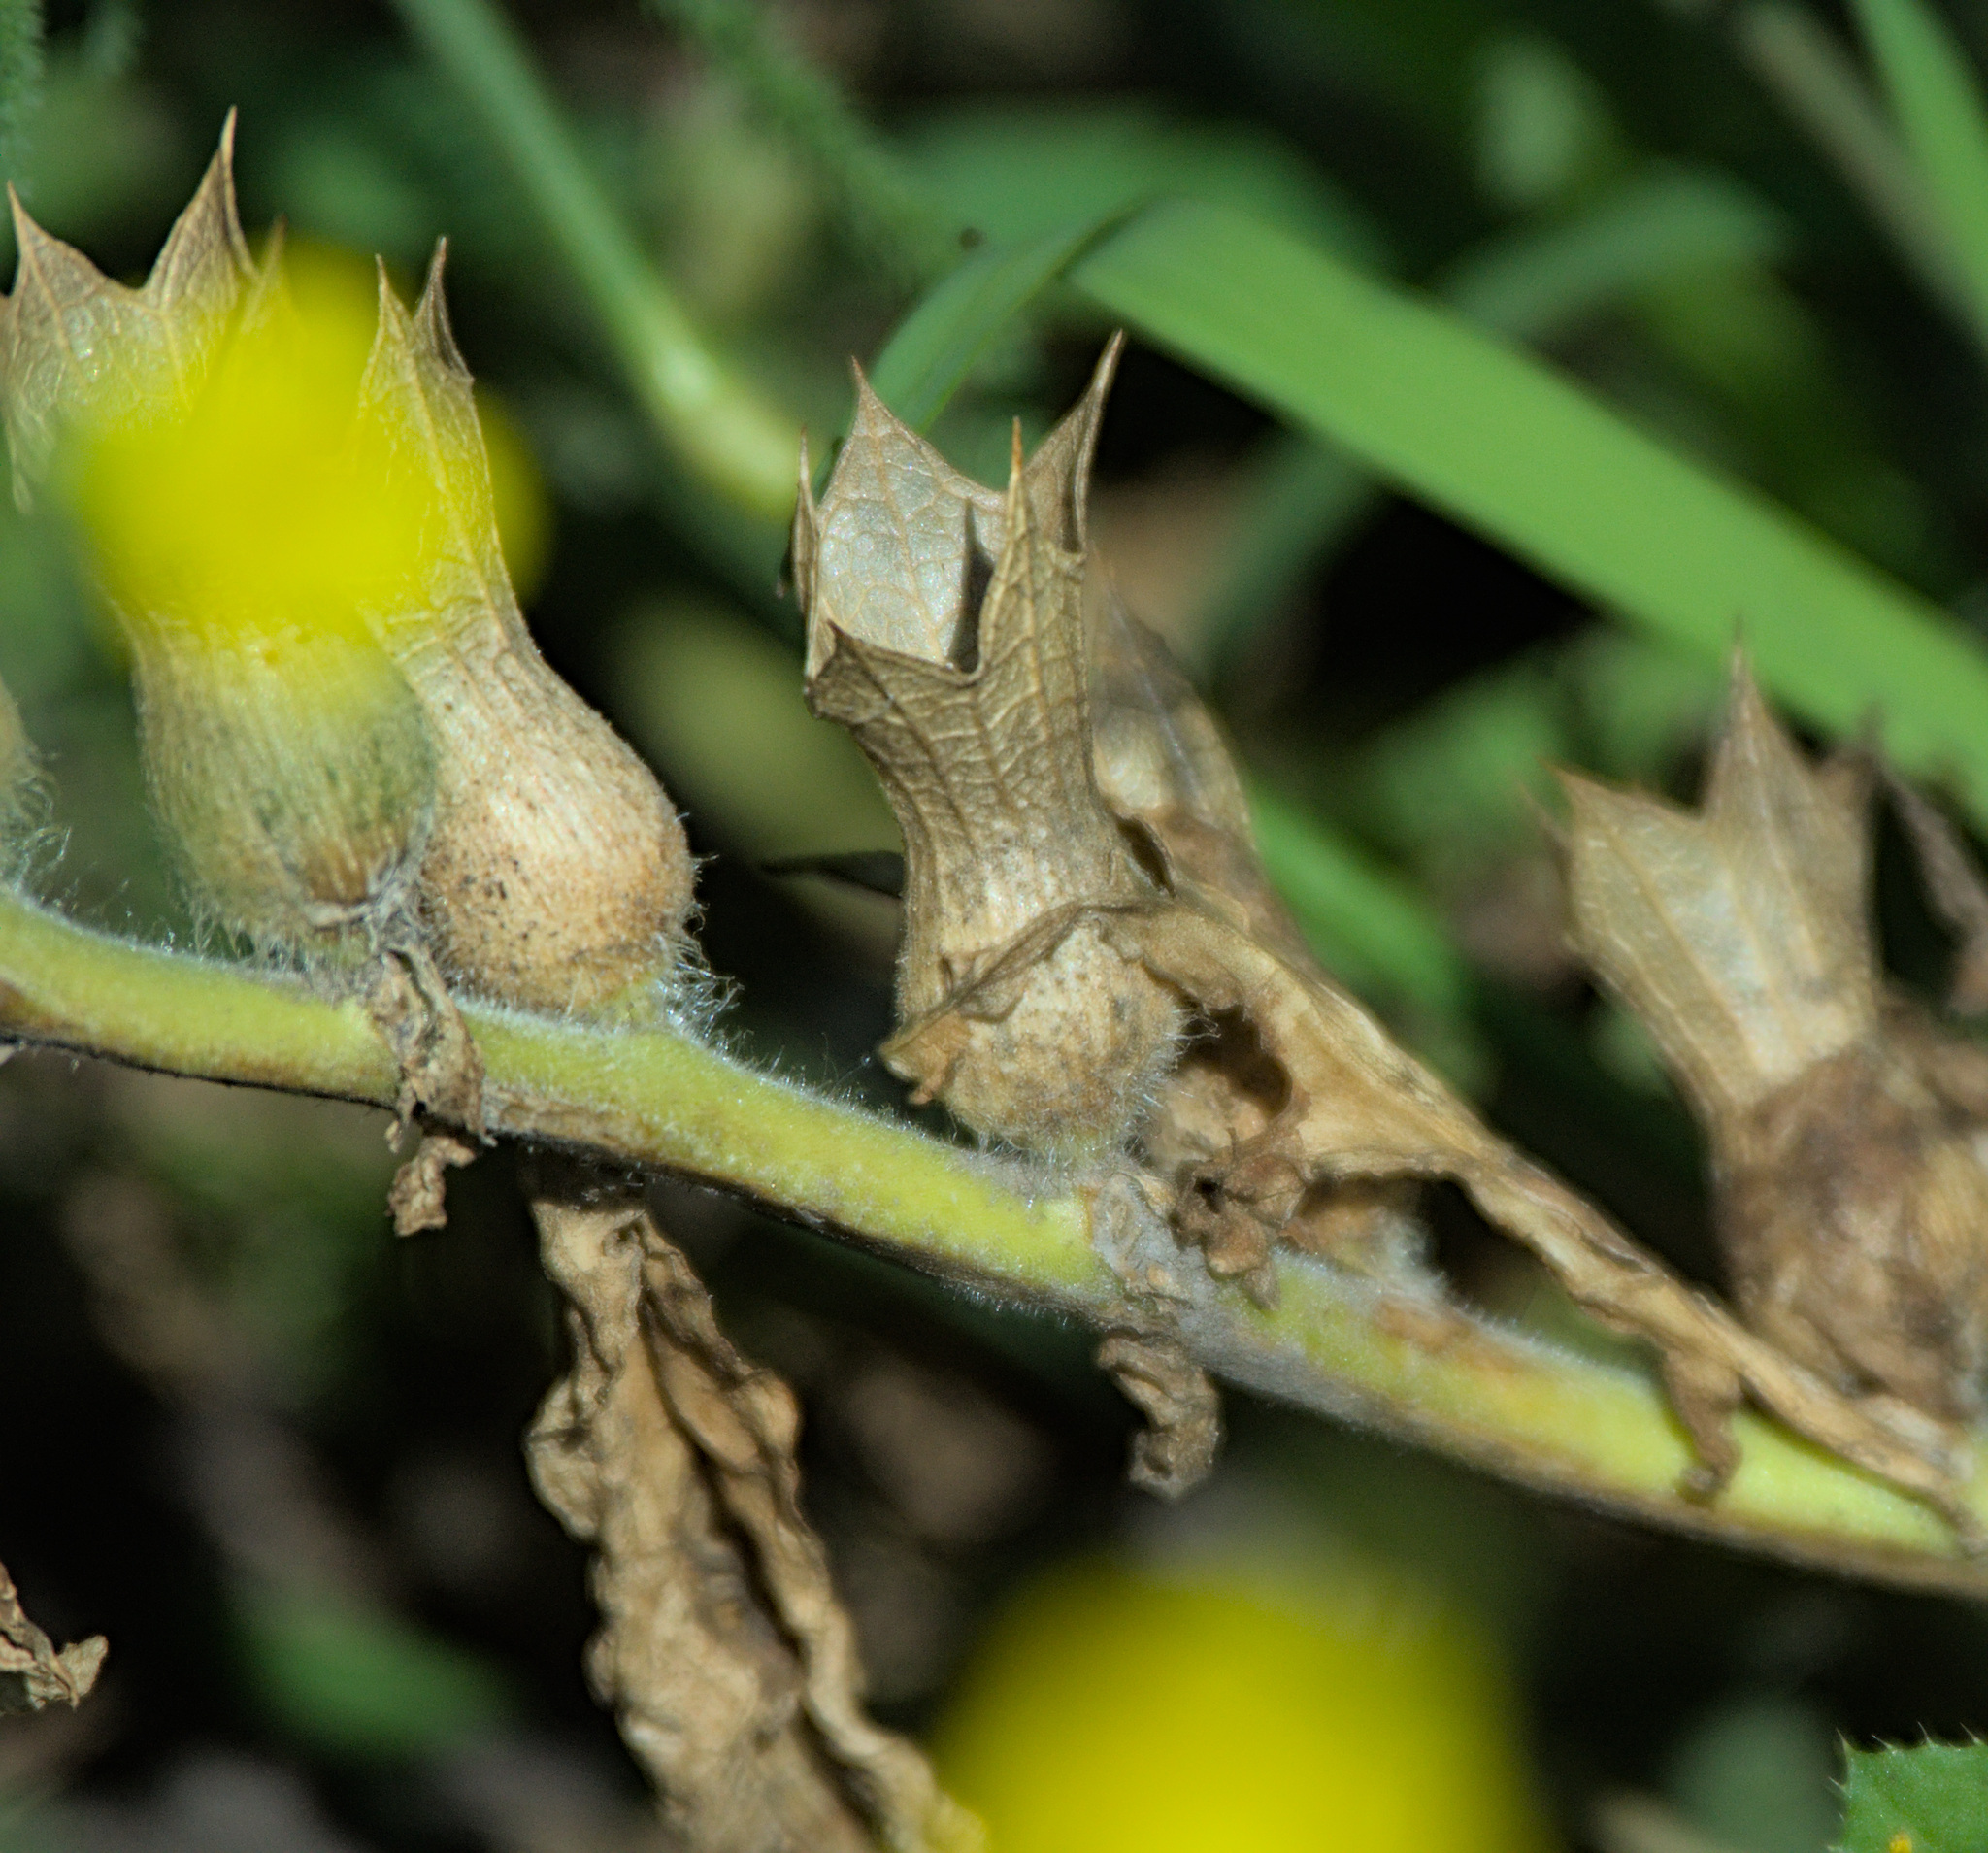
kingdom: Plantae
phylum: Tracheophyta
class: Magnoliopsida
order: Solanales
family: Solanaceae
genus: Hyoscyamus
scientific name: Hyoscyamus niger
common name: Henbane
